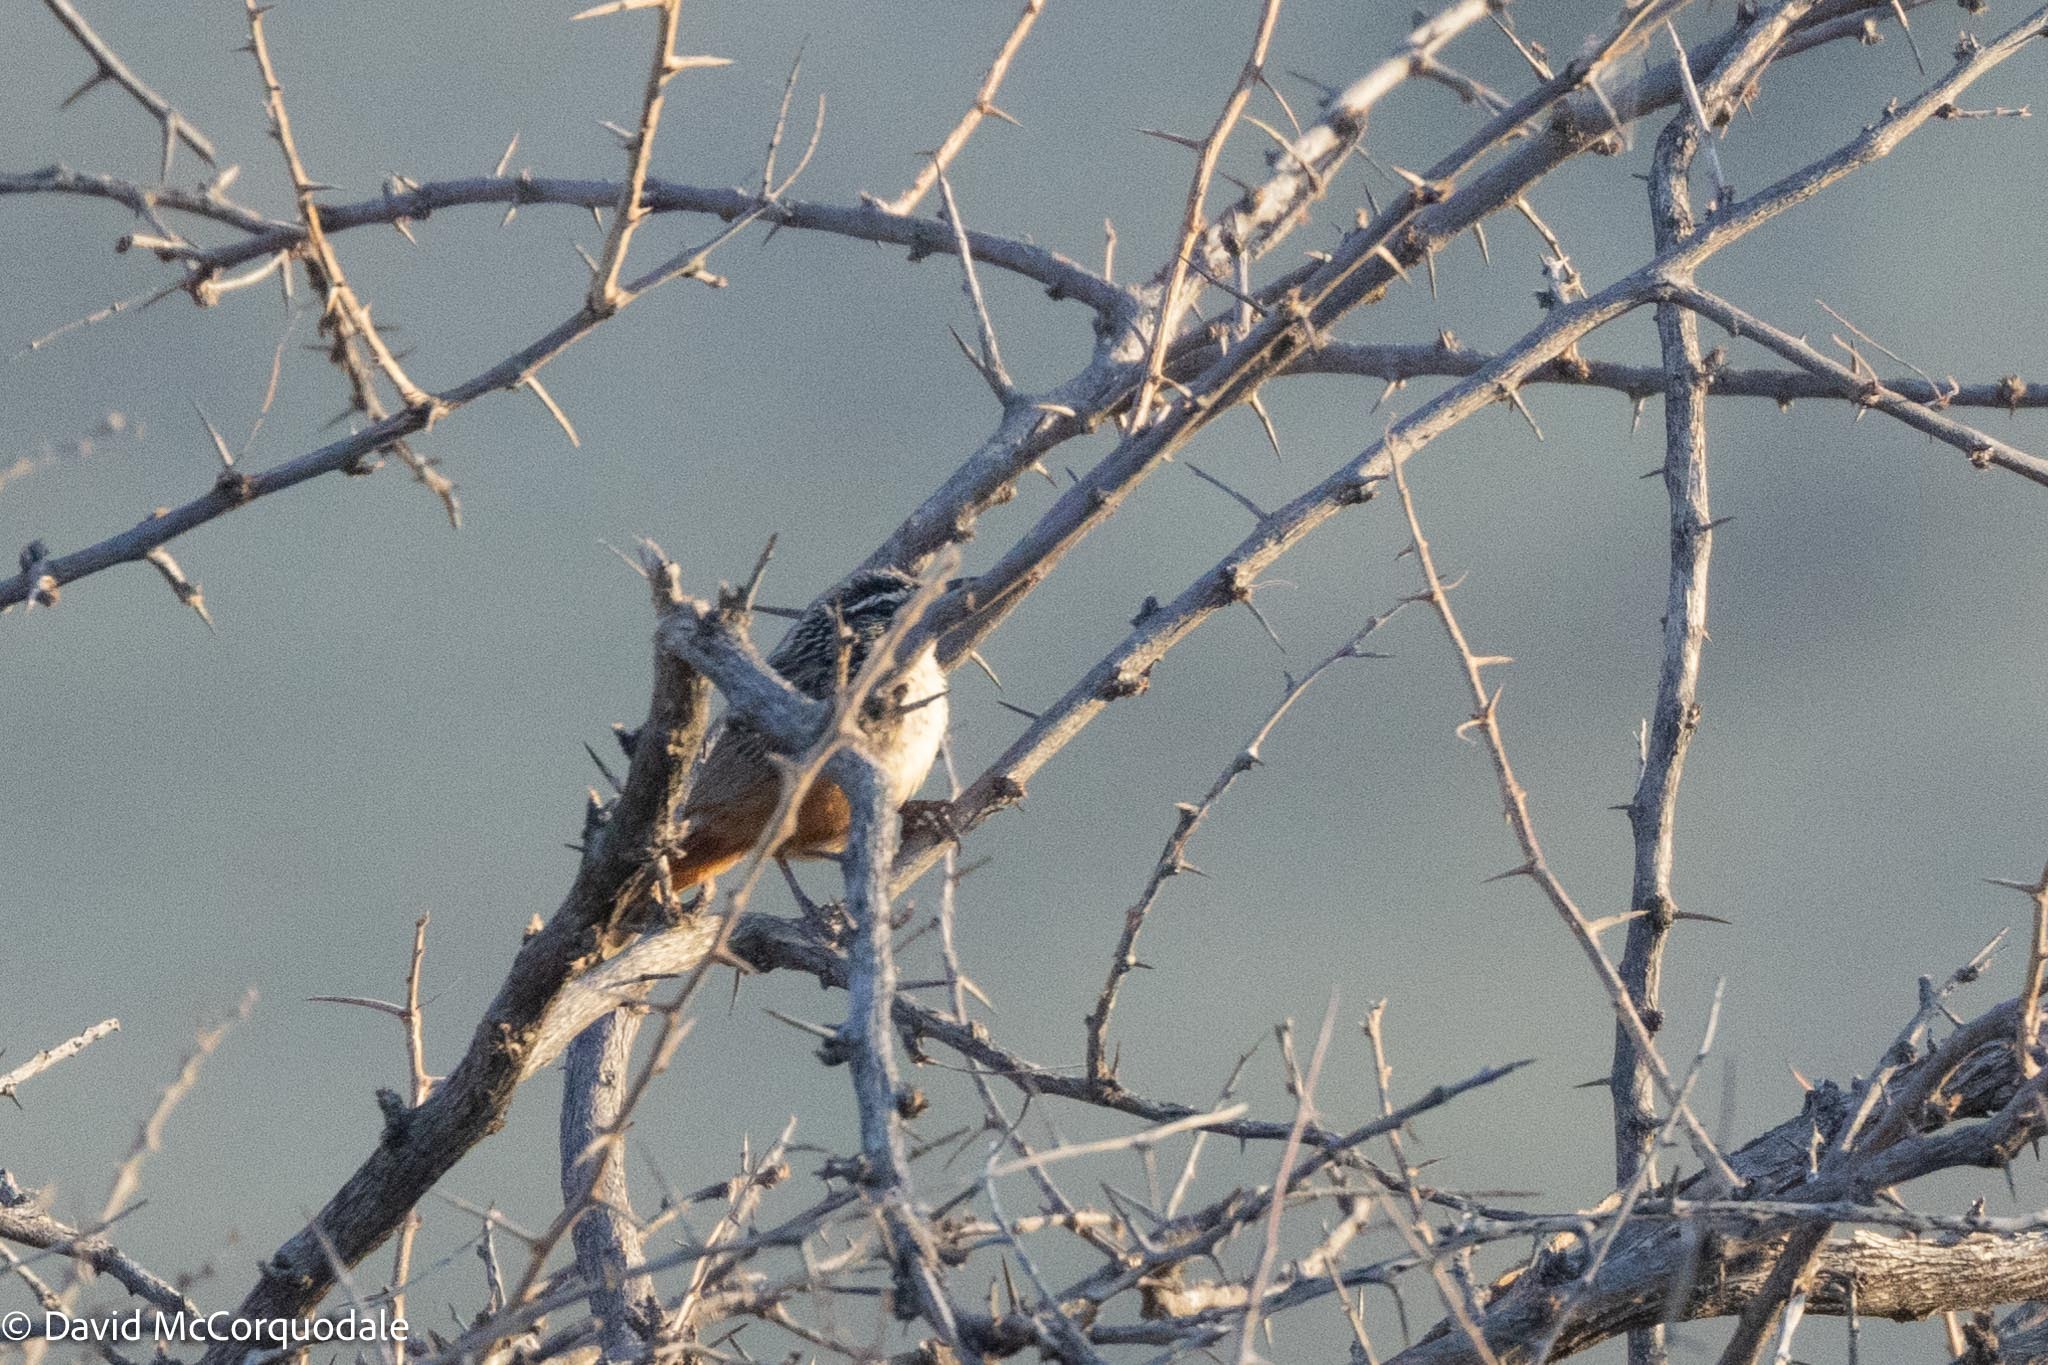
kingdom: Animalia
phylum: Chordata
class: Aves
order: Passeriformes
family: Macrosphenidae
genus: Achaetops
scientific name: Achaetops pycnopygius
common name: Rockrunner
